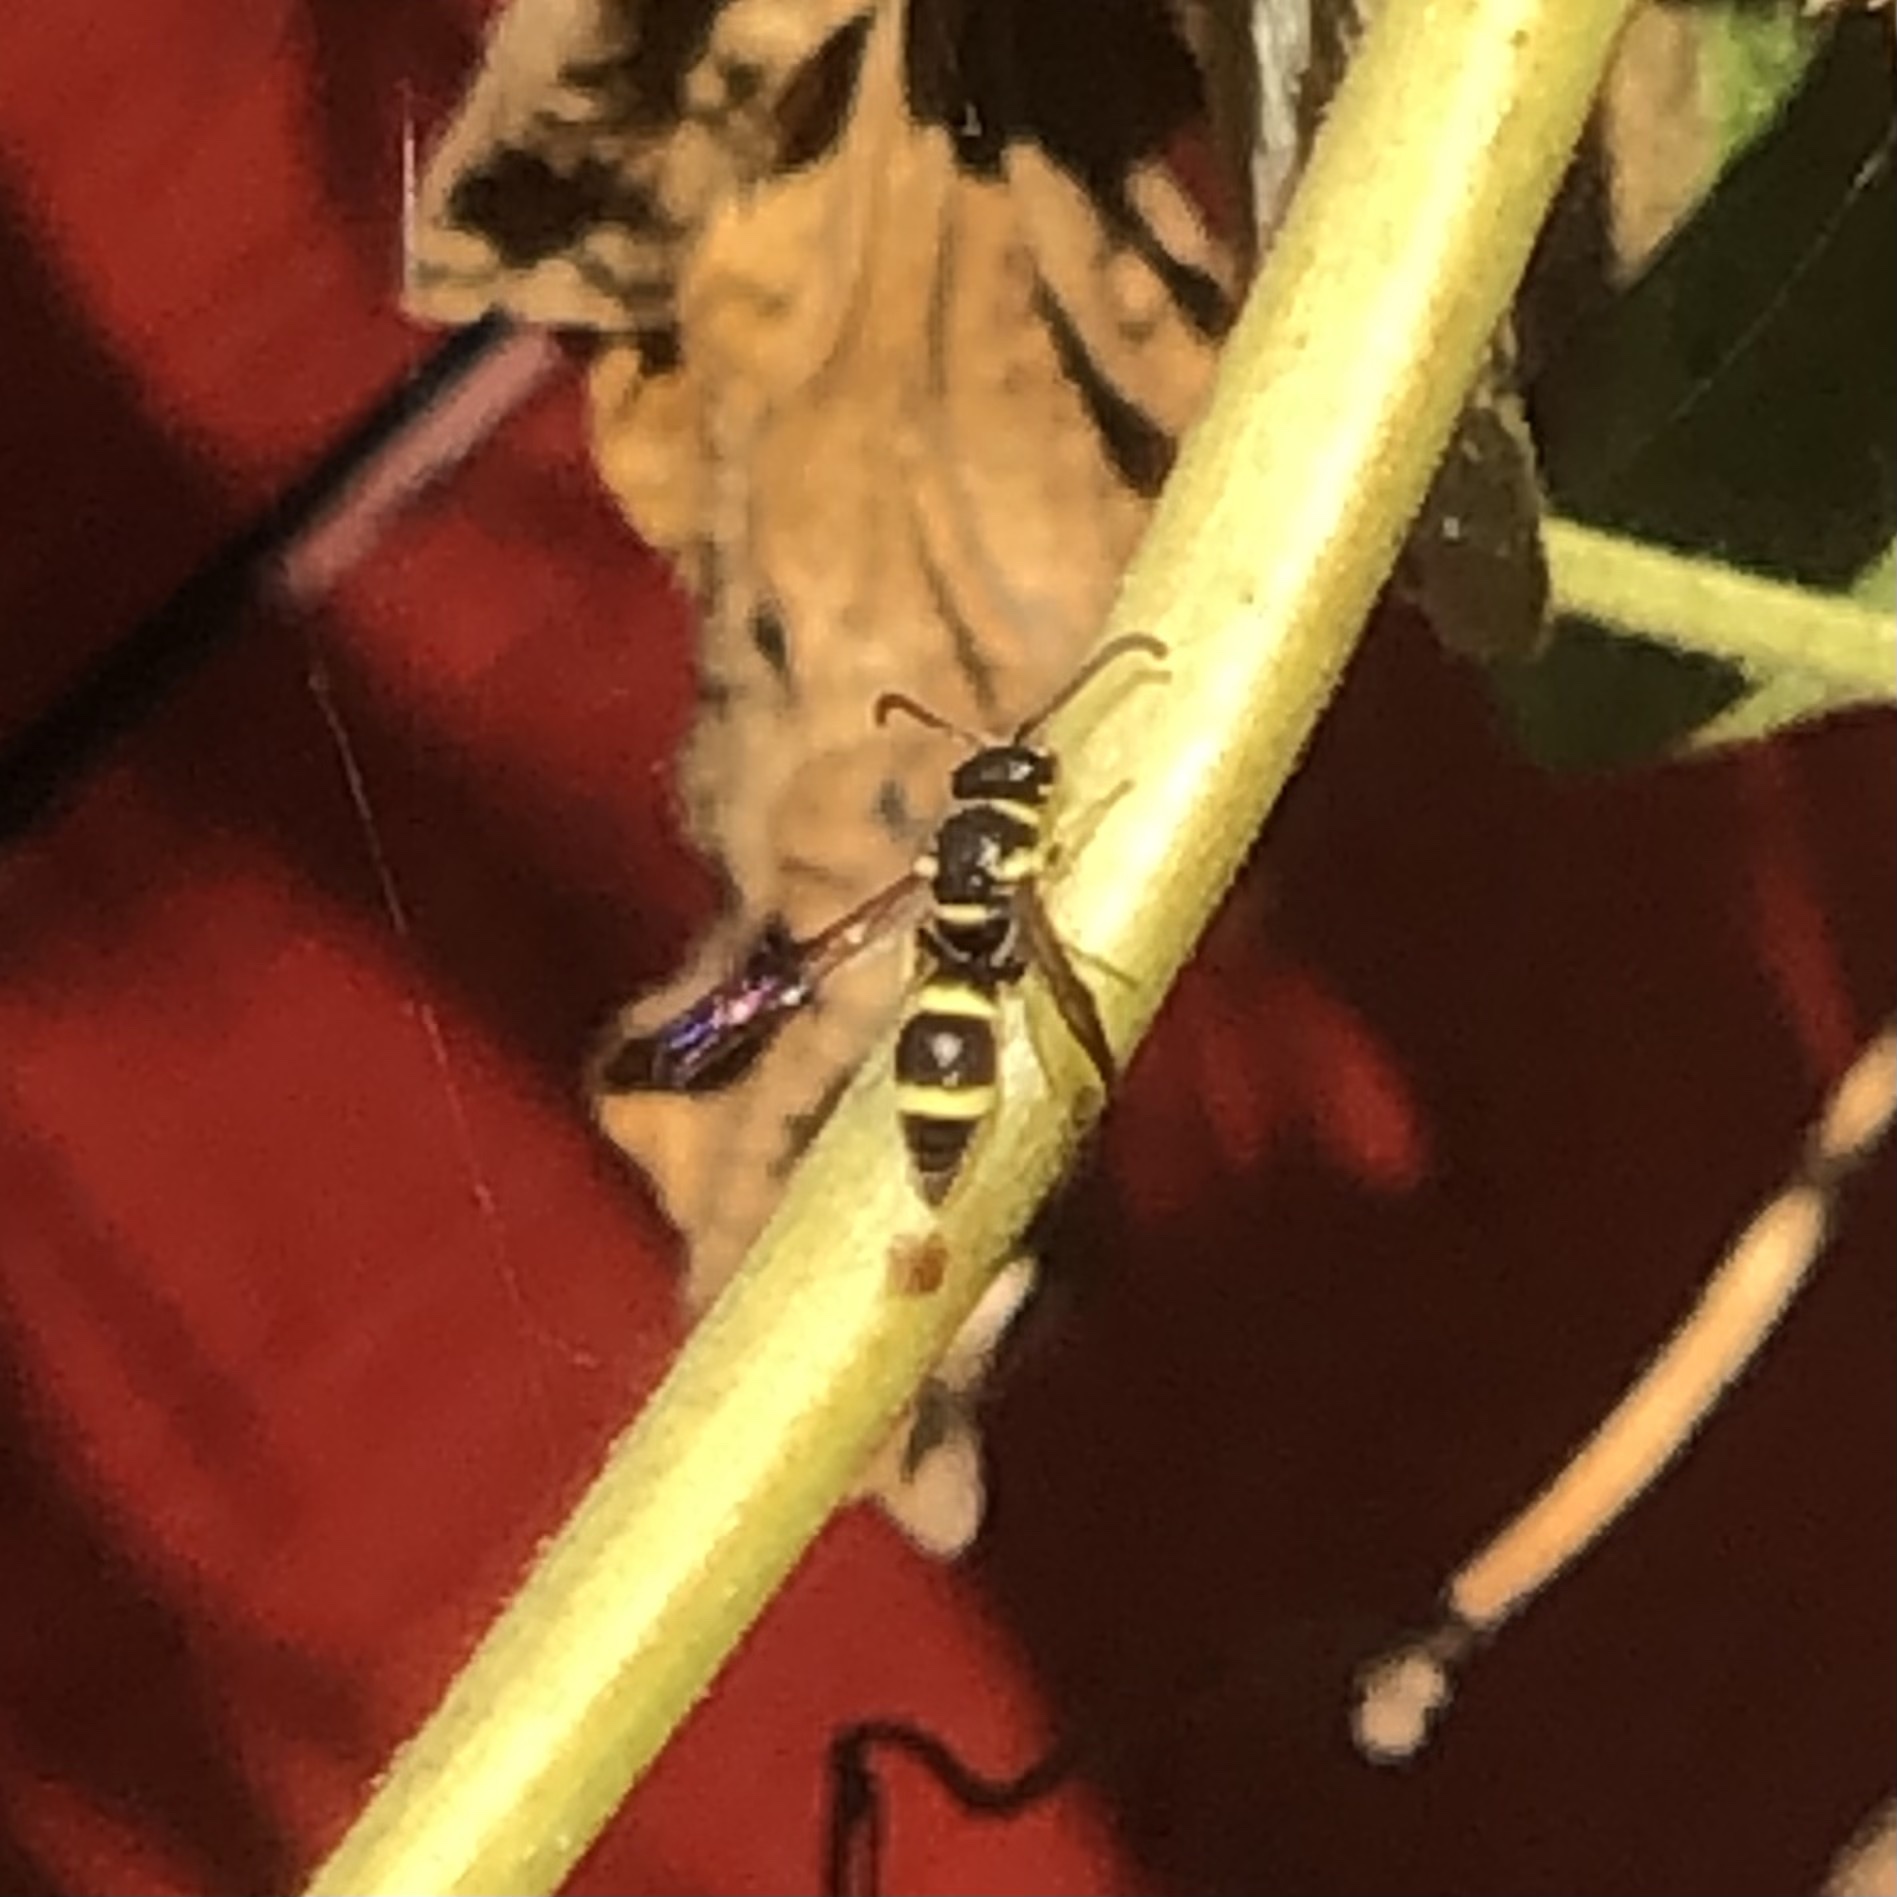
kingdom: Animalia
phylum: Arthropoda
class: Insecta
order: Hymenoptera
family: Eumenidae
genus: Parancistrocerus
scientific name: Parancistrocerus declivatus
